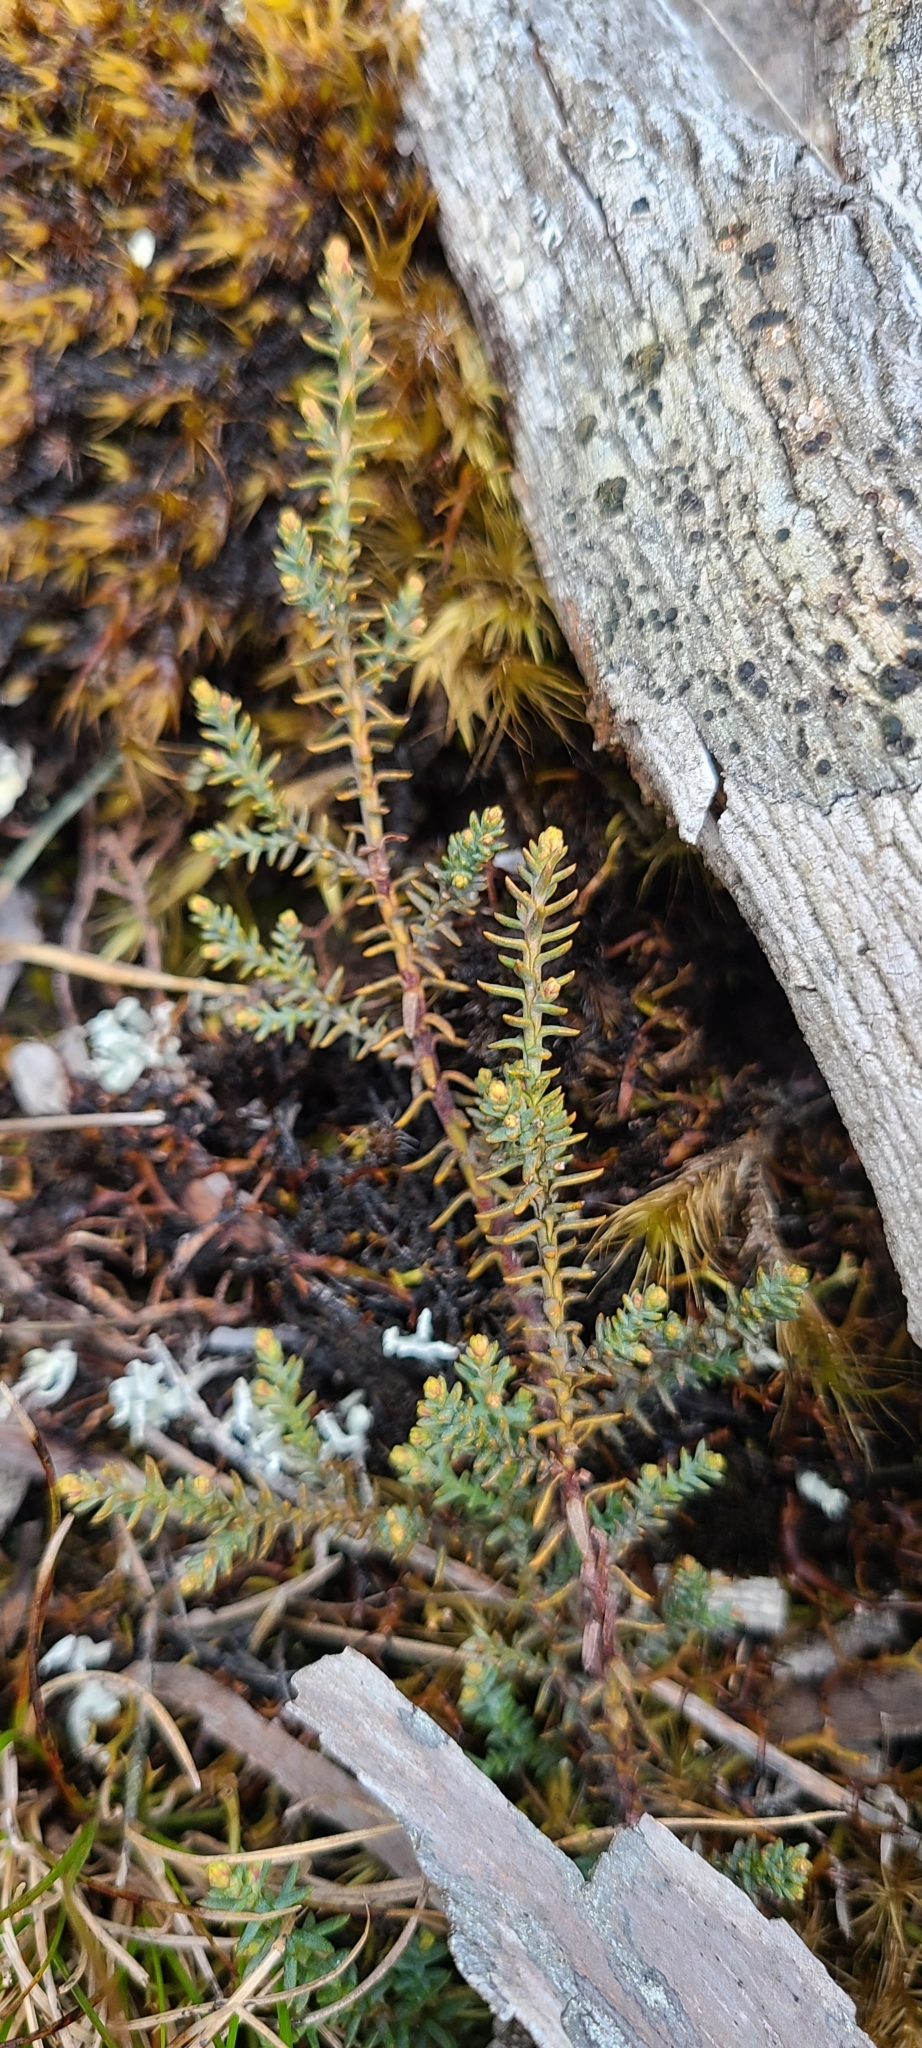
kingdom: Plantae
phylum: Tracheophyta
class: Pinopsida
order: Pinales
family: Podocarpaceae
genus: Lepidothamnus
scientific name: Lepidothamnus laxifolius
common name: Pygmy pine
